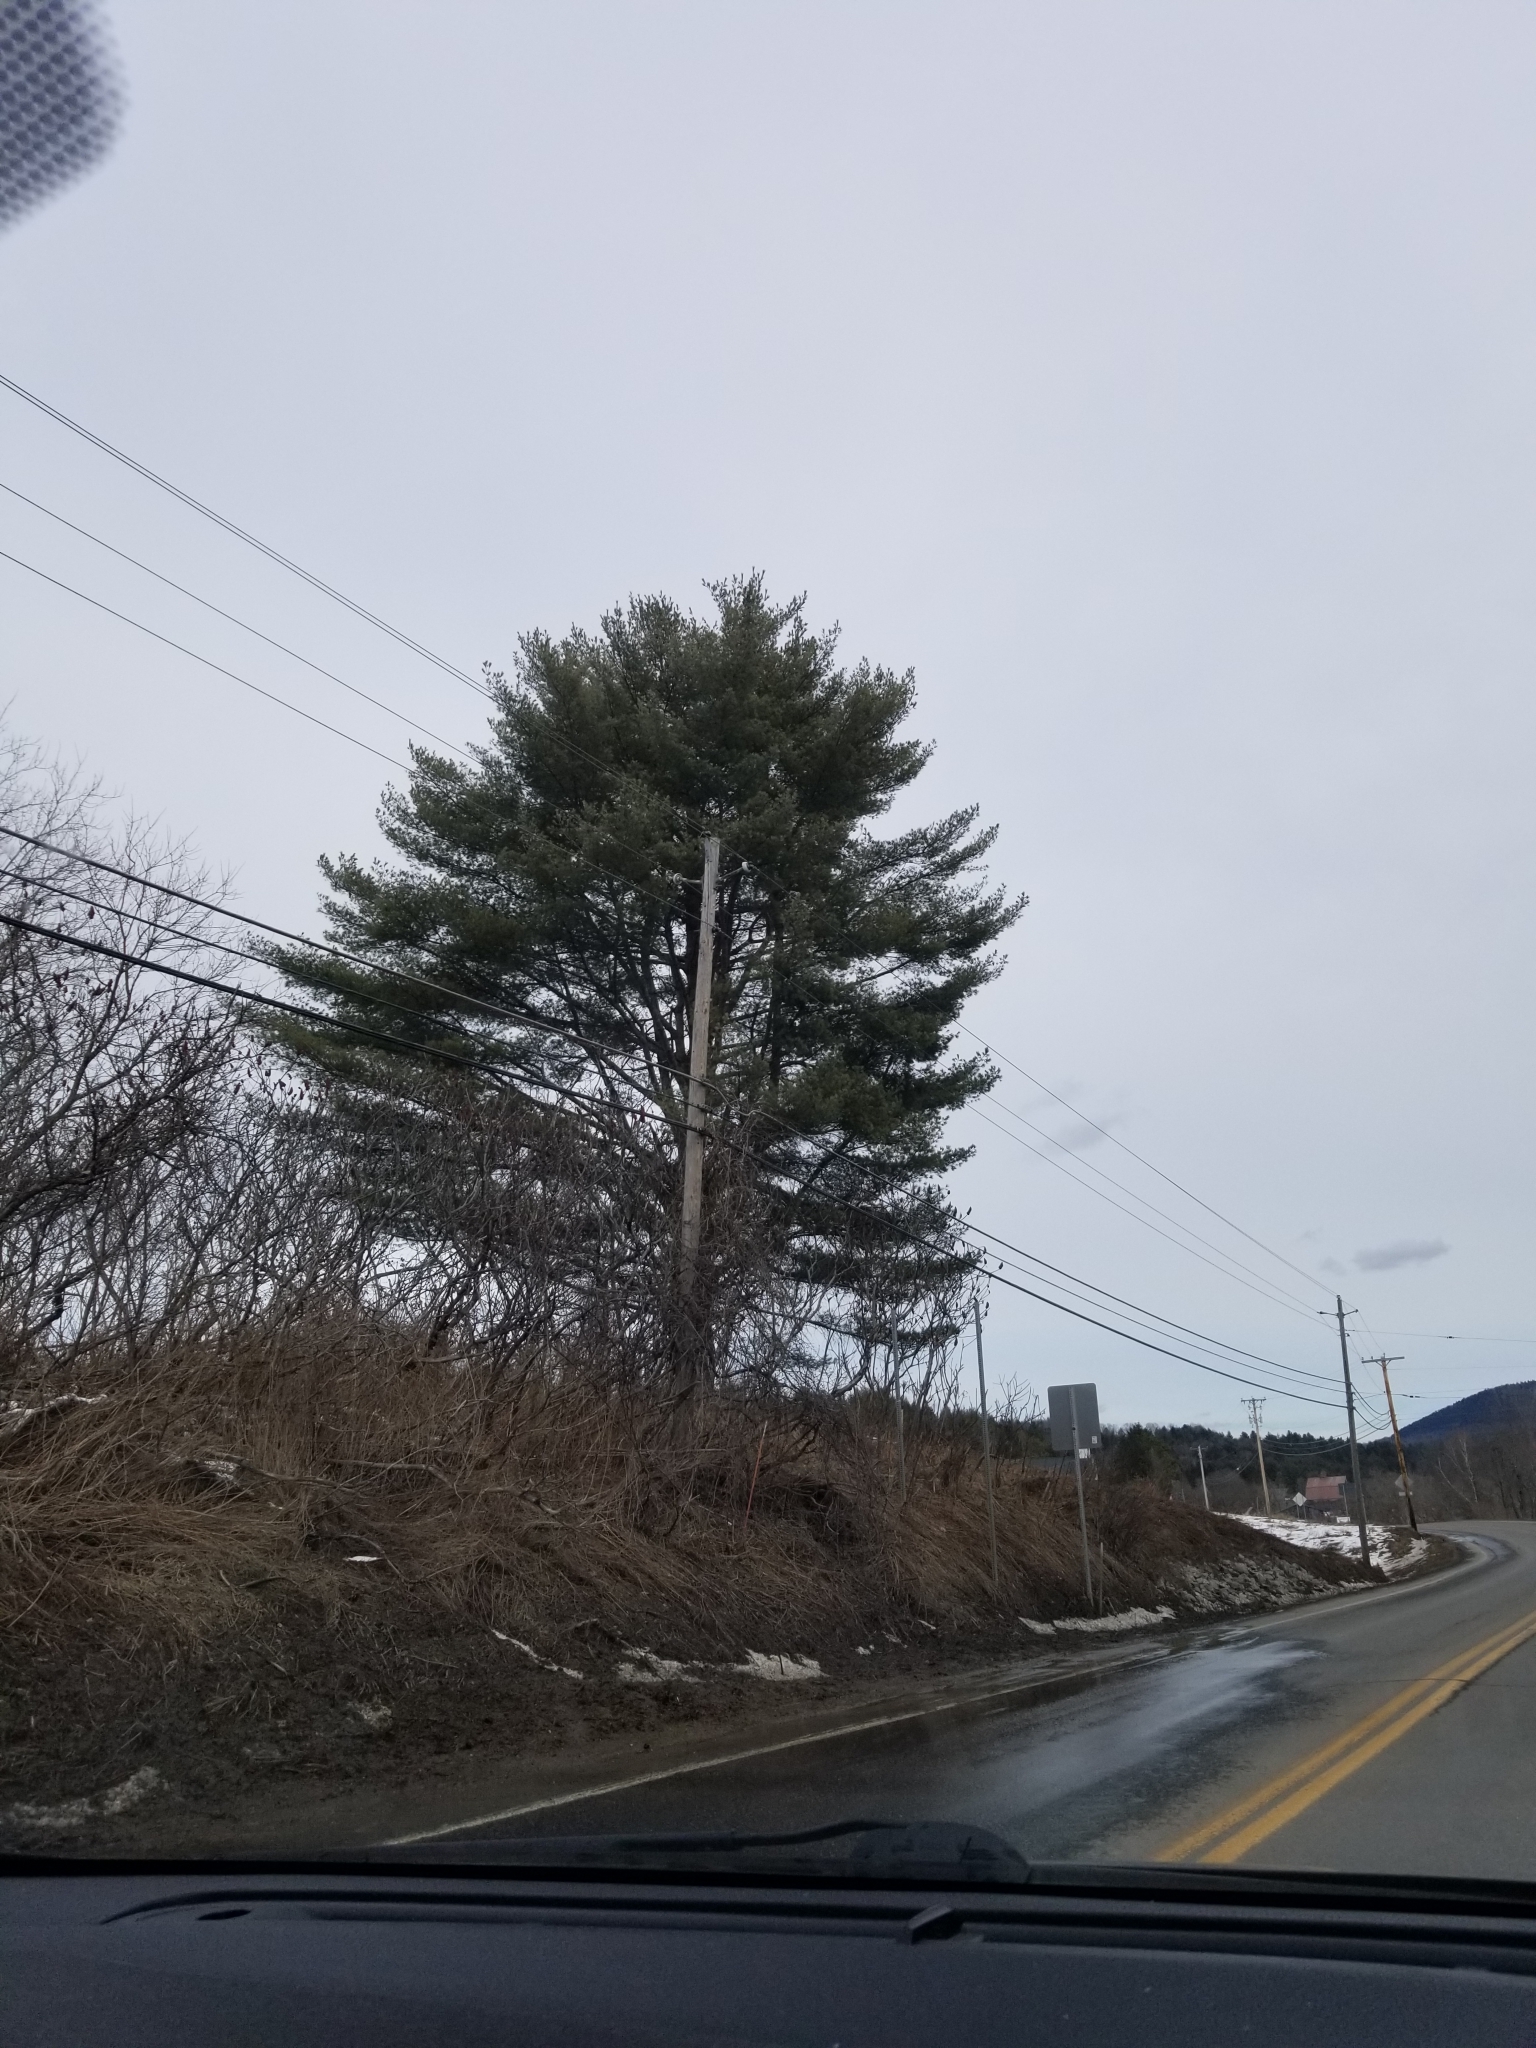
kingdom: Plantae
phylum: Tracheophyta
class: Pinopsida
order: Pinales
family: Pinaceae
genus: Pinus
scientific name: Pinus strobus
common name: Weymouth pine
